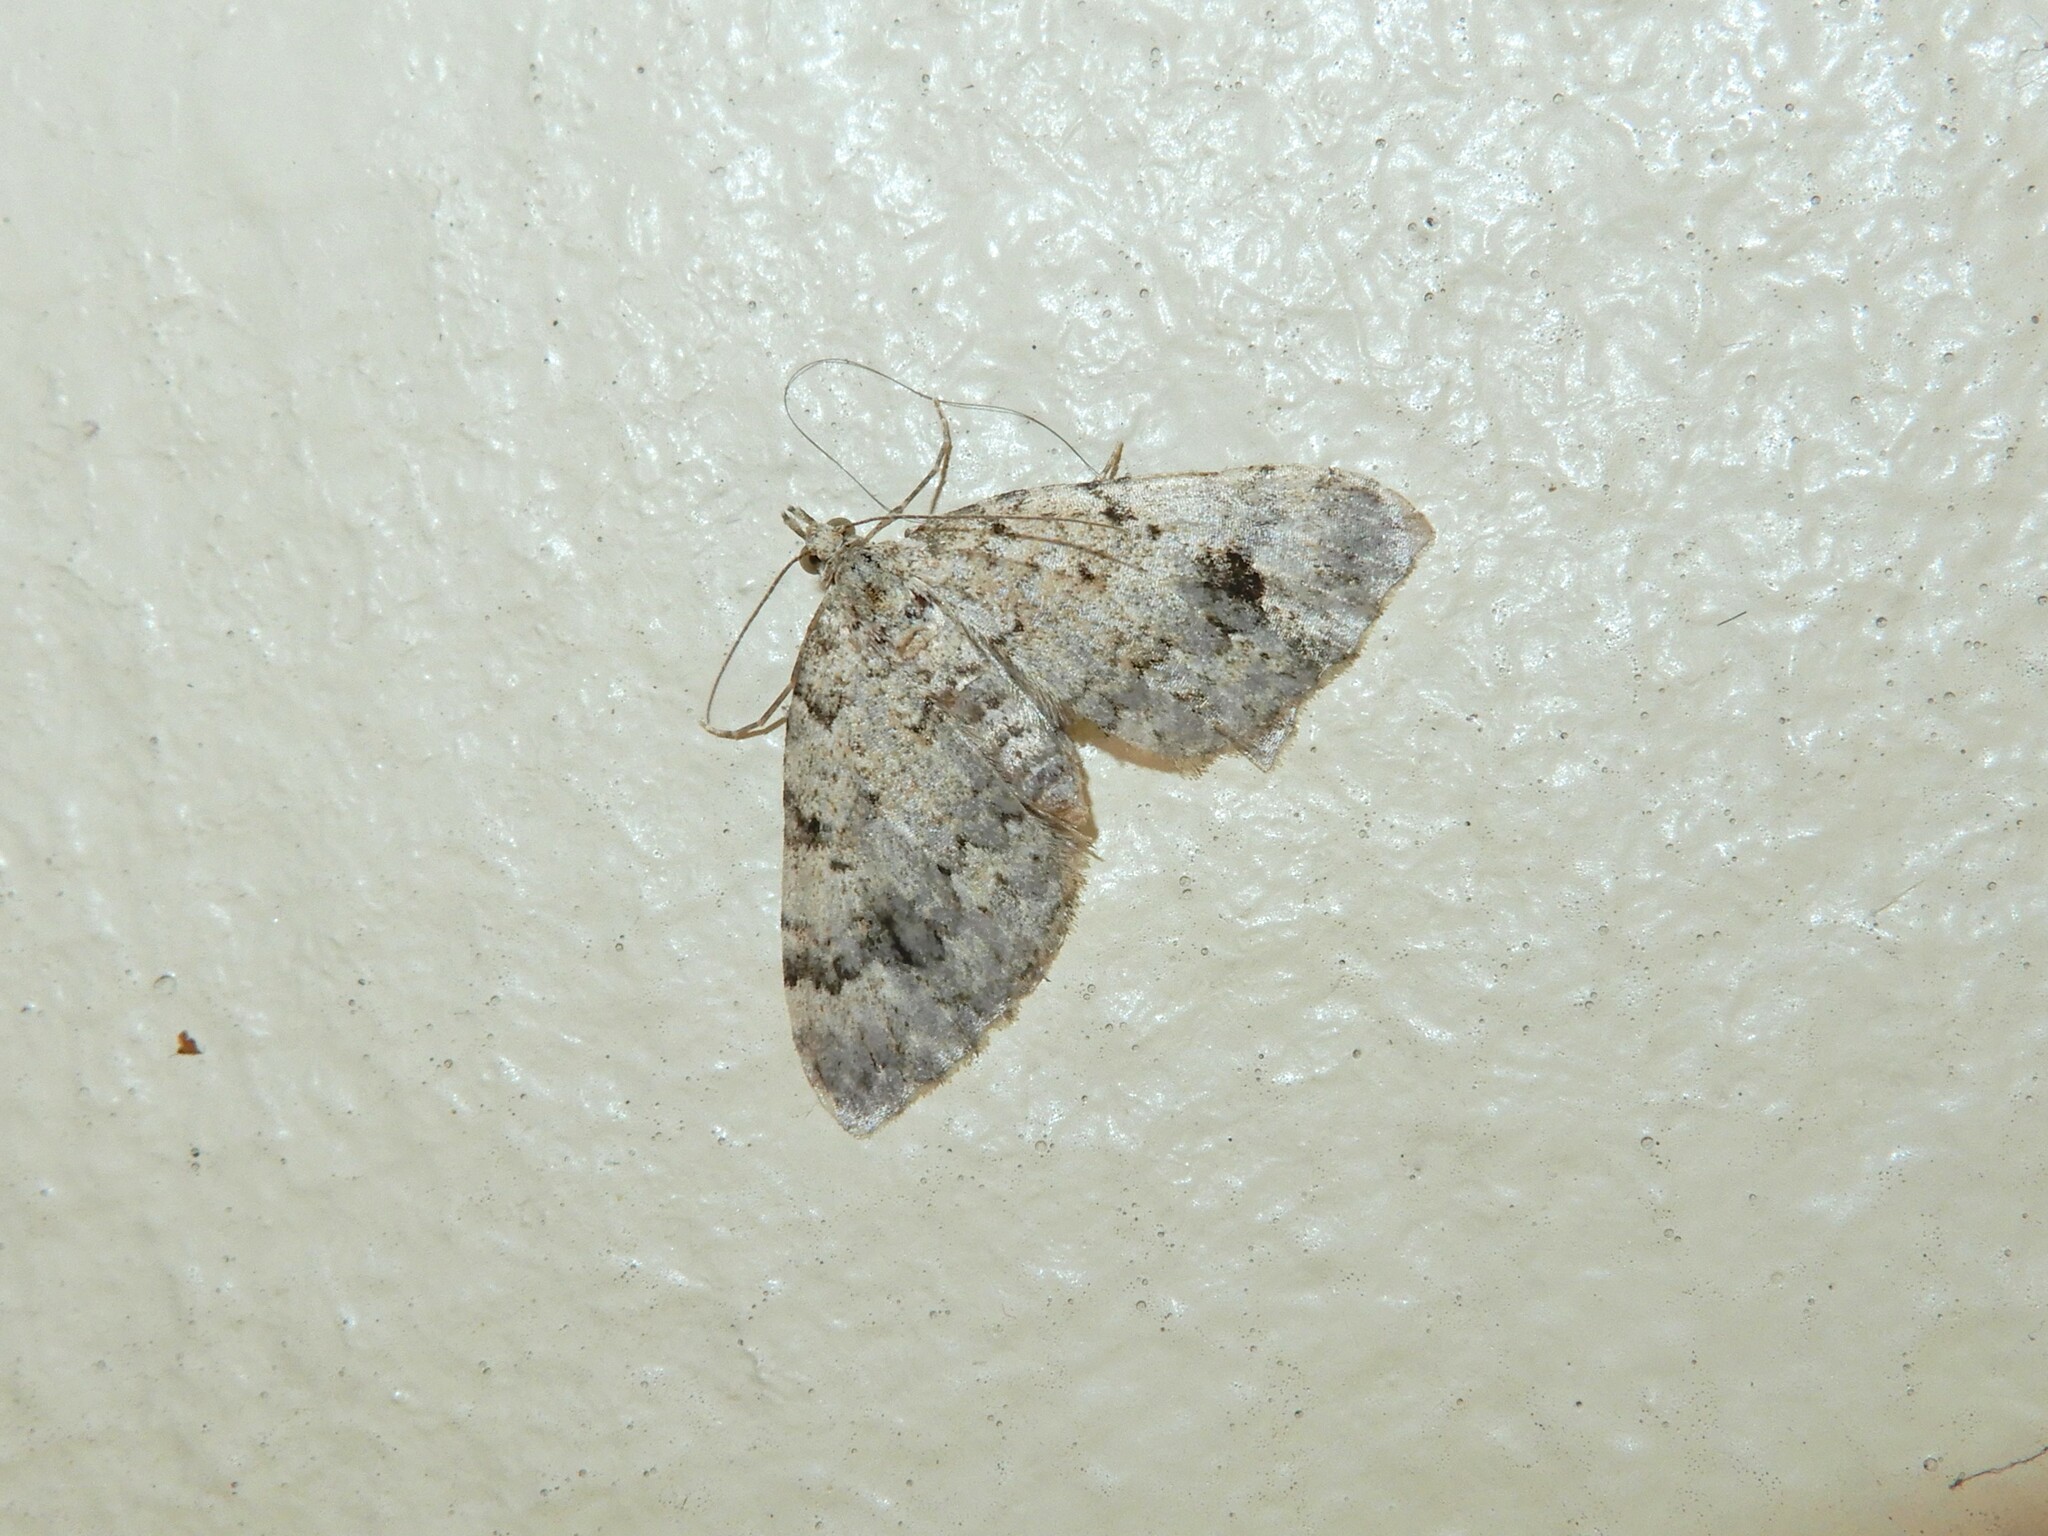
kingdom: Animalia
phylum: Arthropoda
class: Insecta
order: Lepidoptera
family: Geometridae
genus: Helastia
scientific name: Helastia cinerearia
